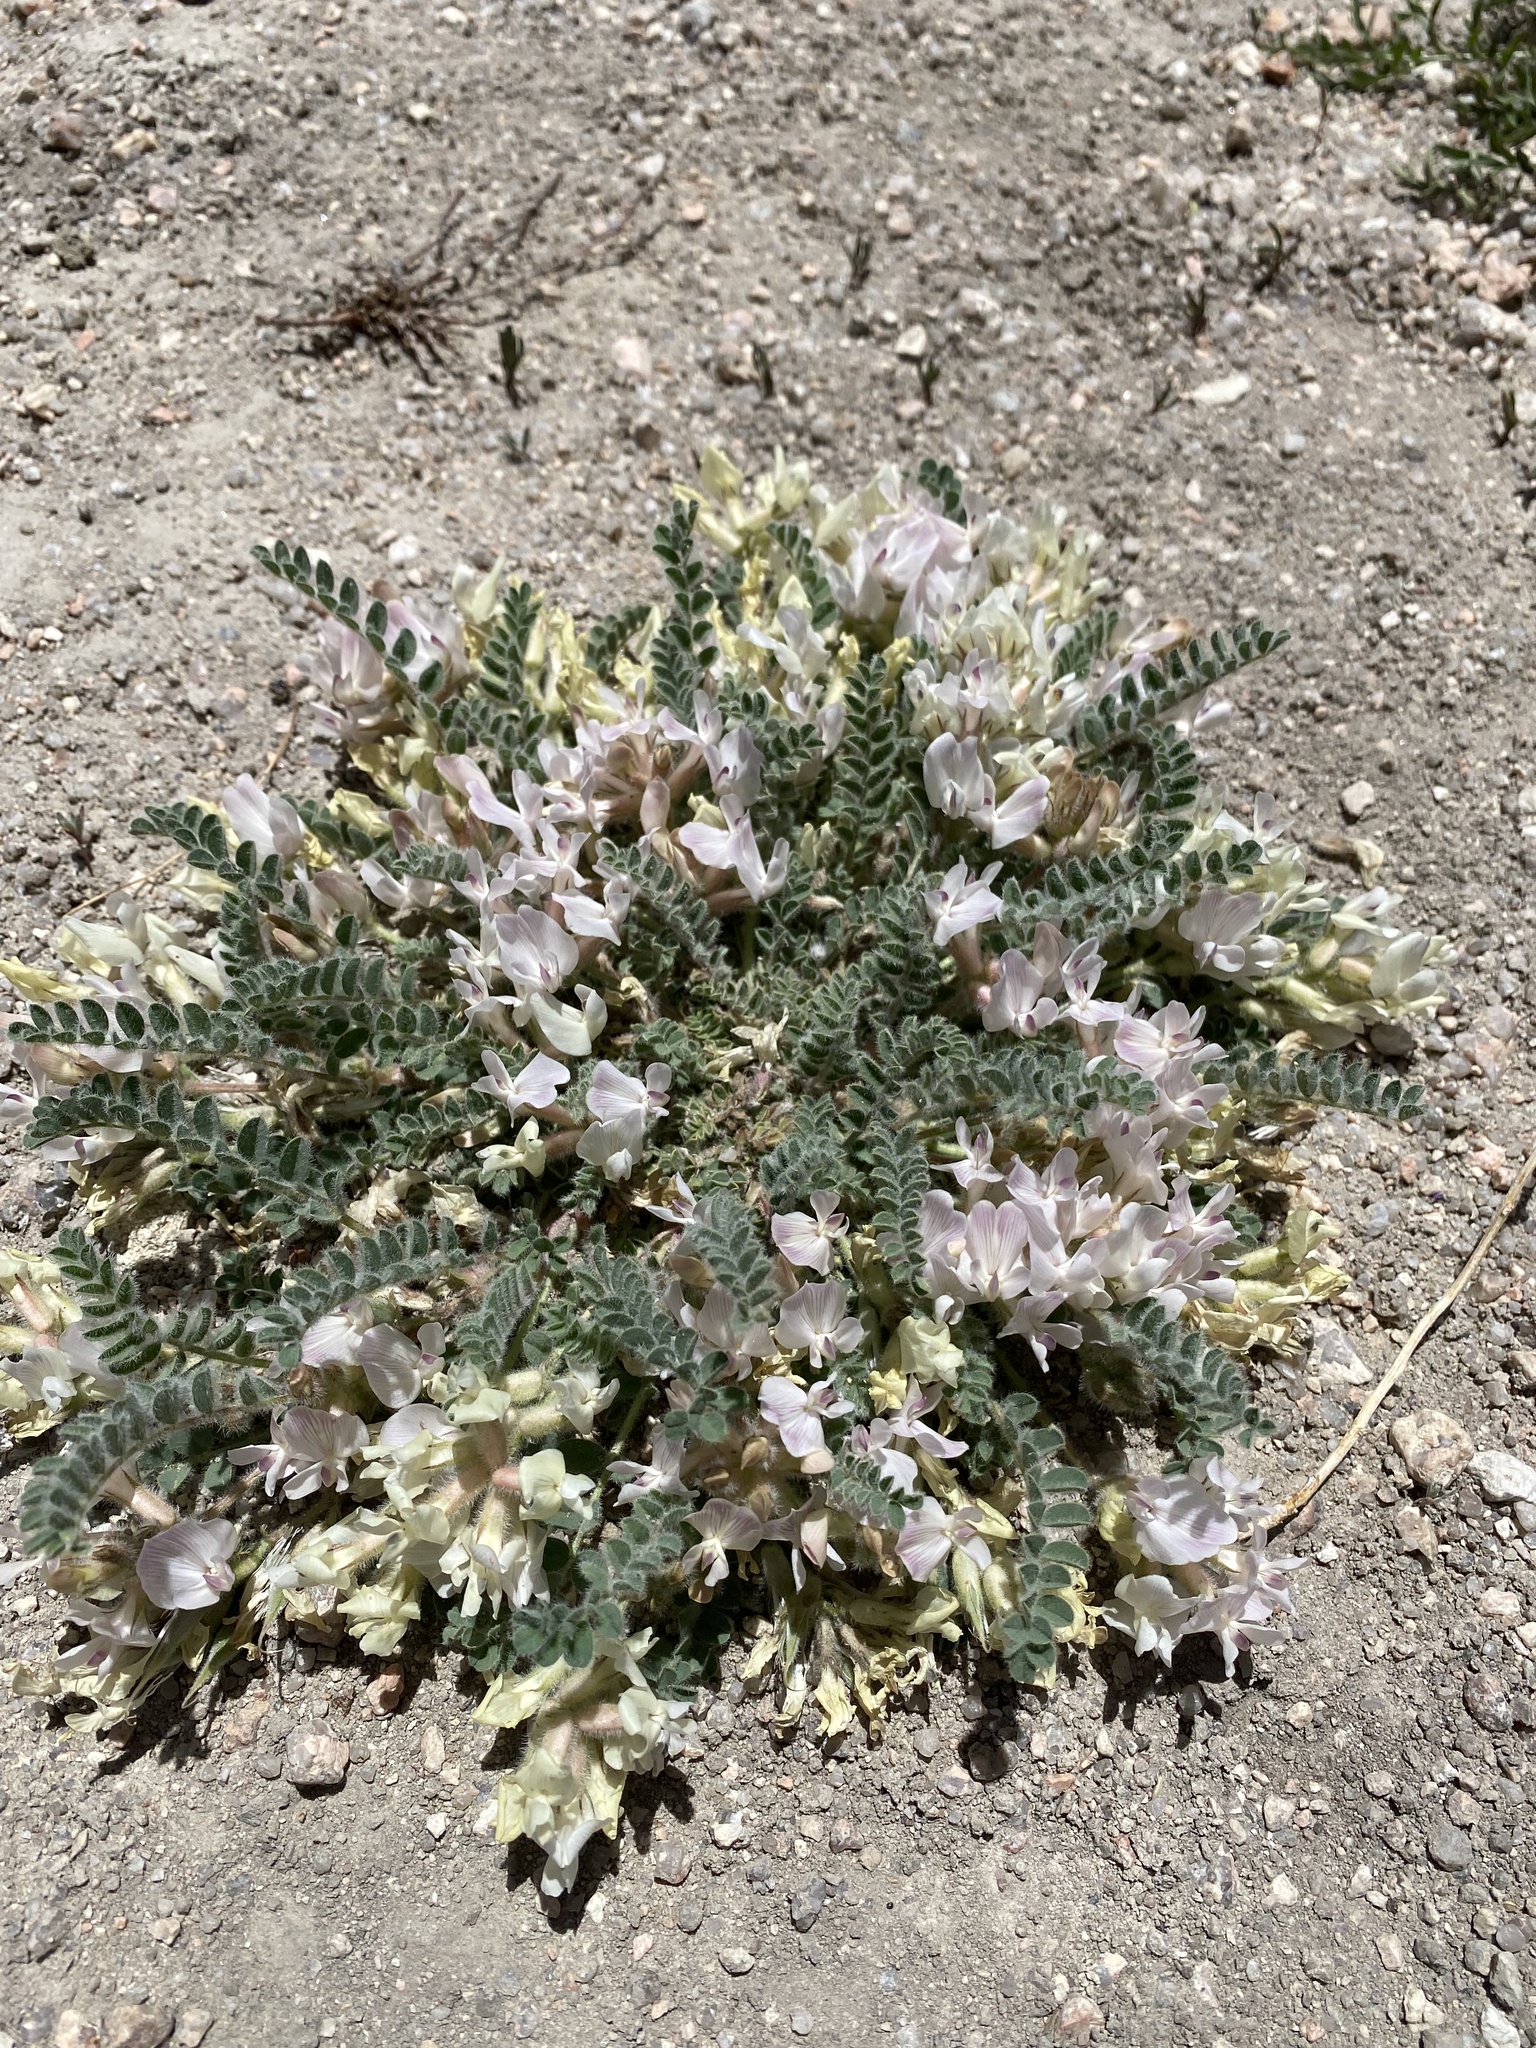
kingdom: Plantae
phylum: Tracheophyta
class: Magnoliopsida
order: Fabales
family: Fabaceae
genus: Astragalus
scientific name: Astragalus parryi
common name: Parry milk-vetch
